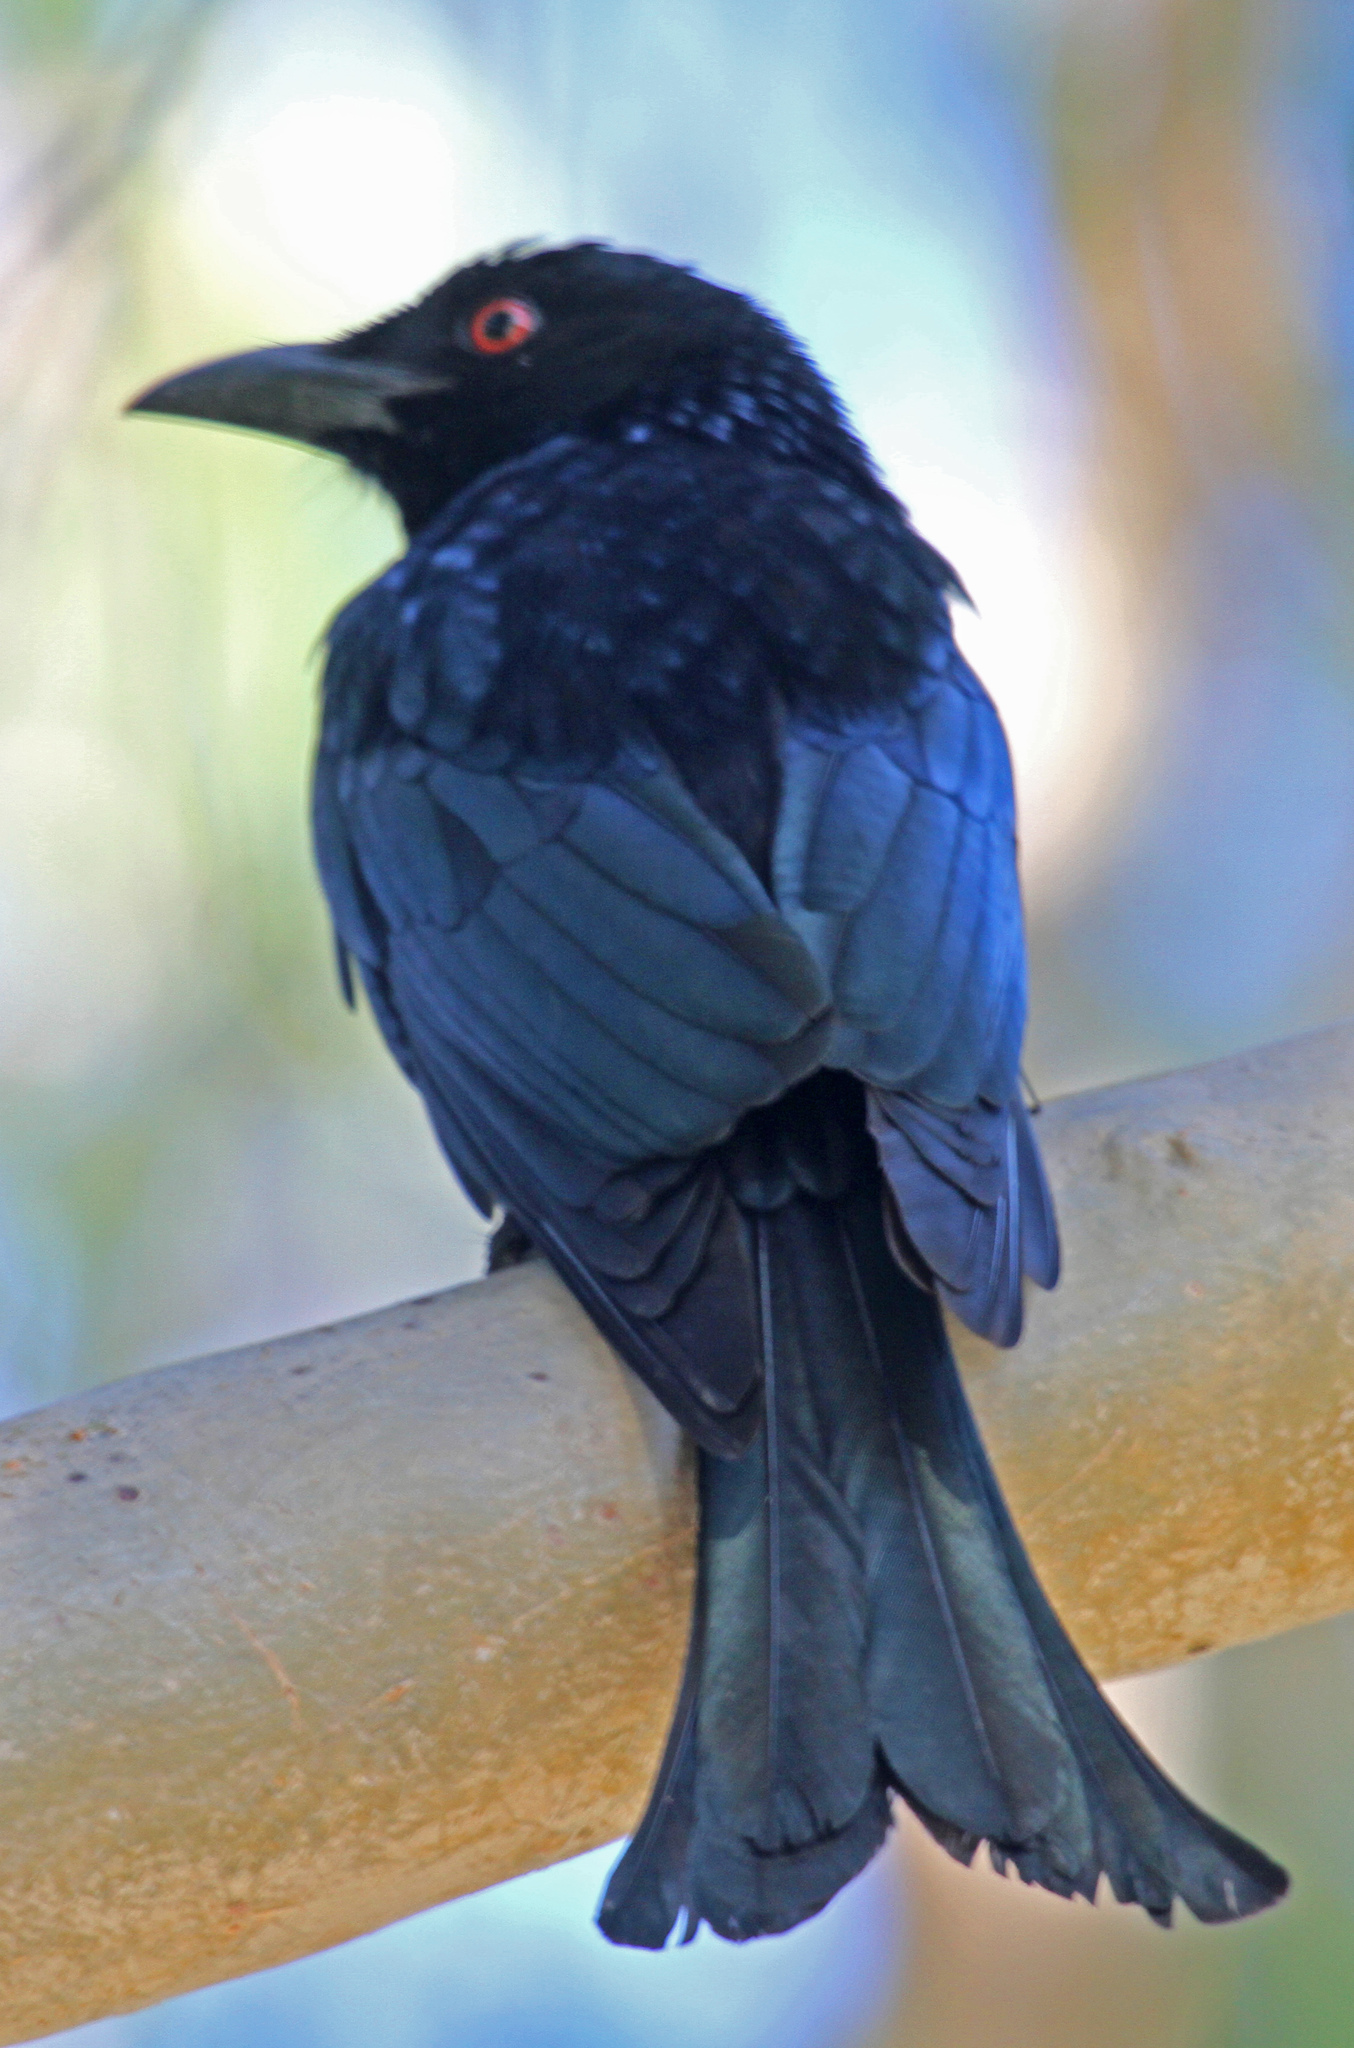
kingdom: Animalia
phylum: Chordata
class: Aves
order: Passeriformes
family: Dicruridae
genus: Dicrurus
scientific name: Dicrurus bracteatus
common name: Spangled drongo
